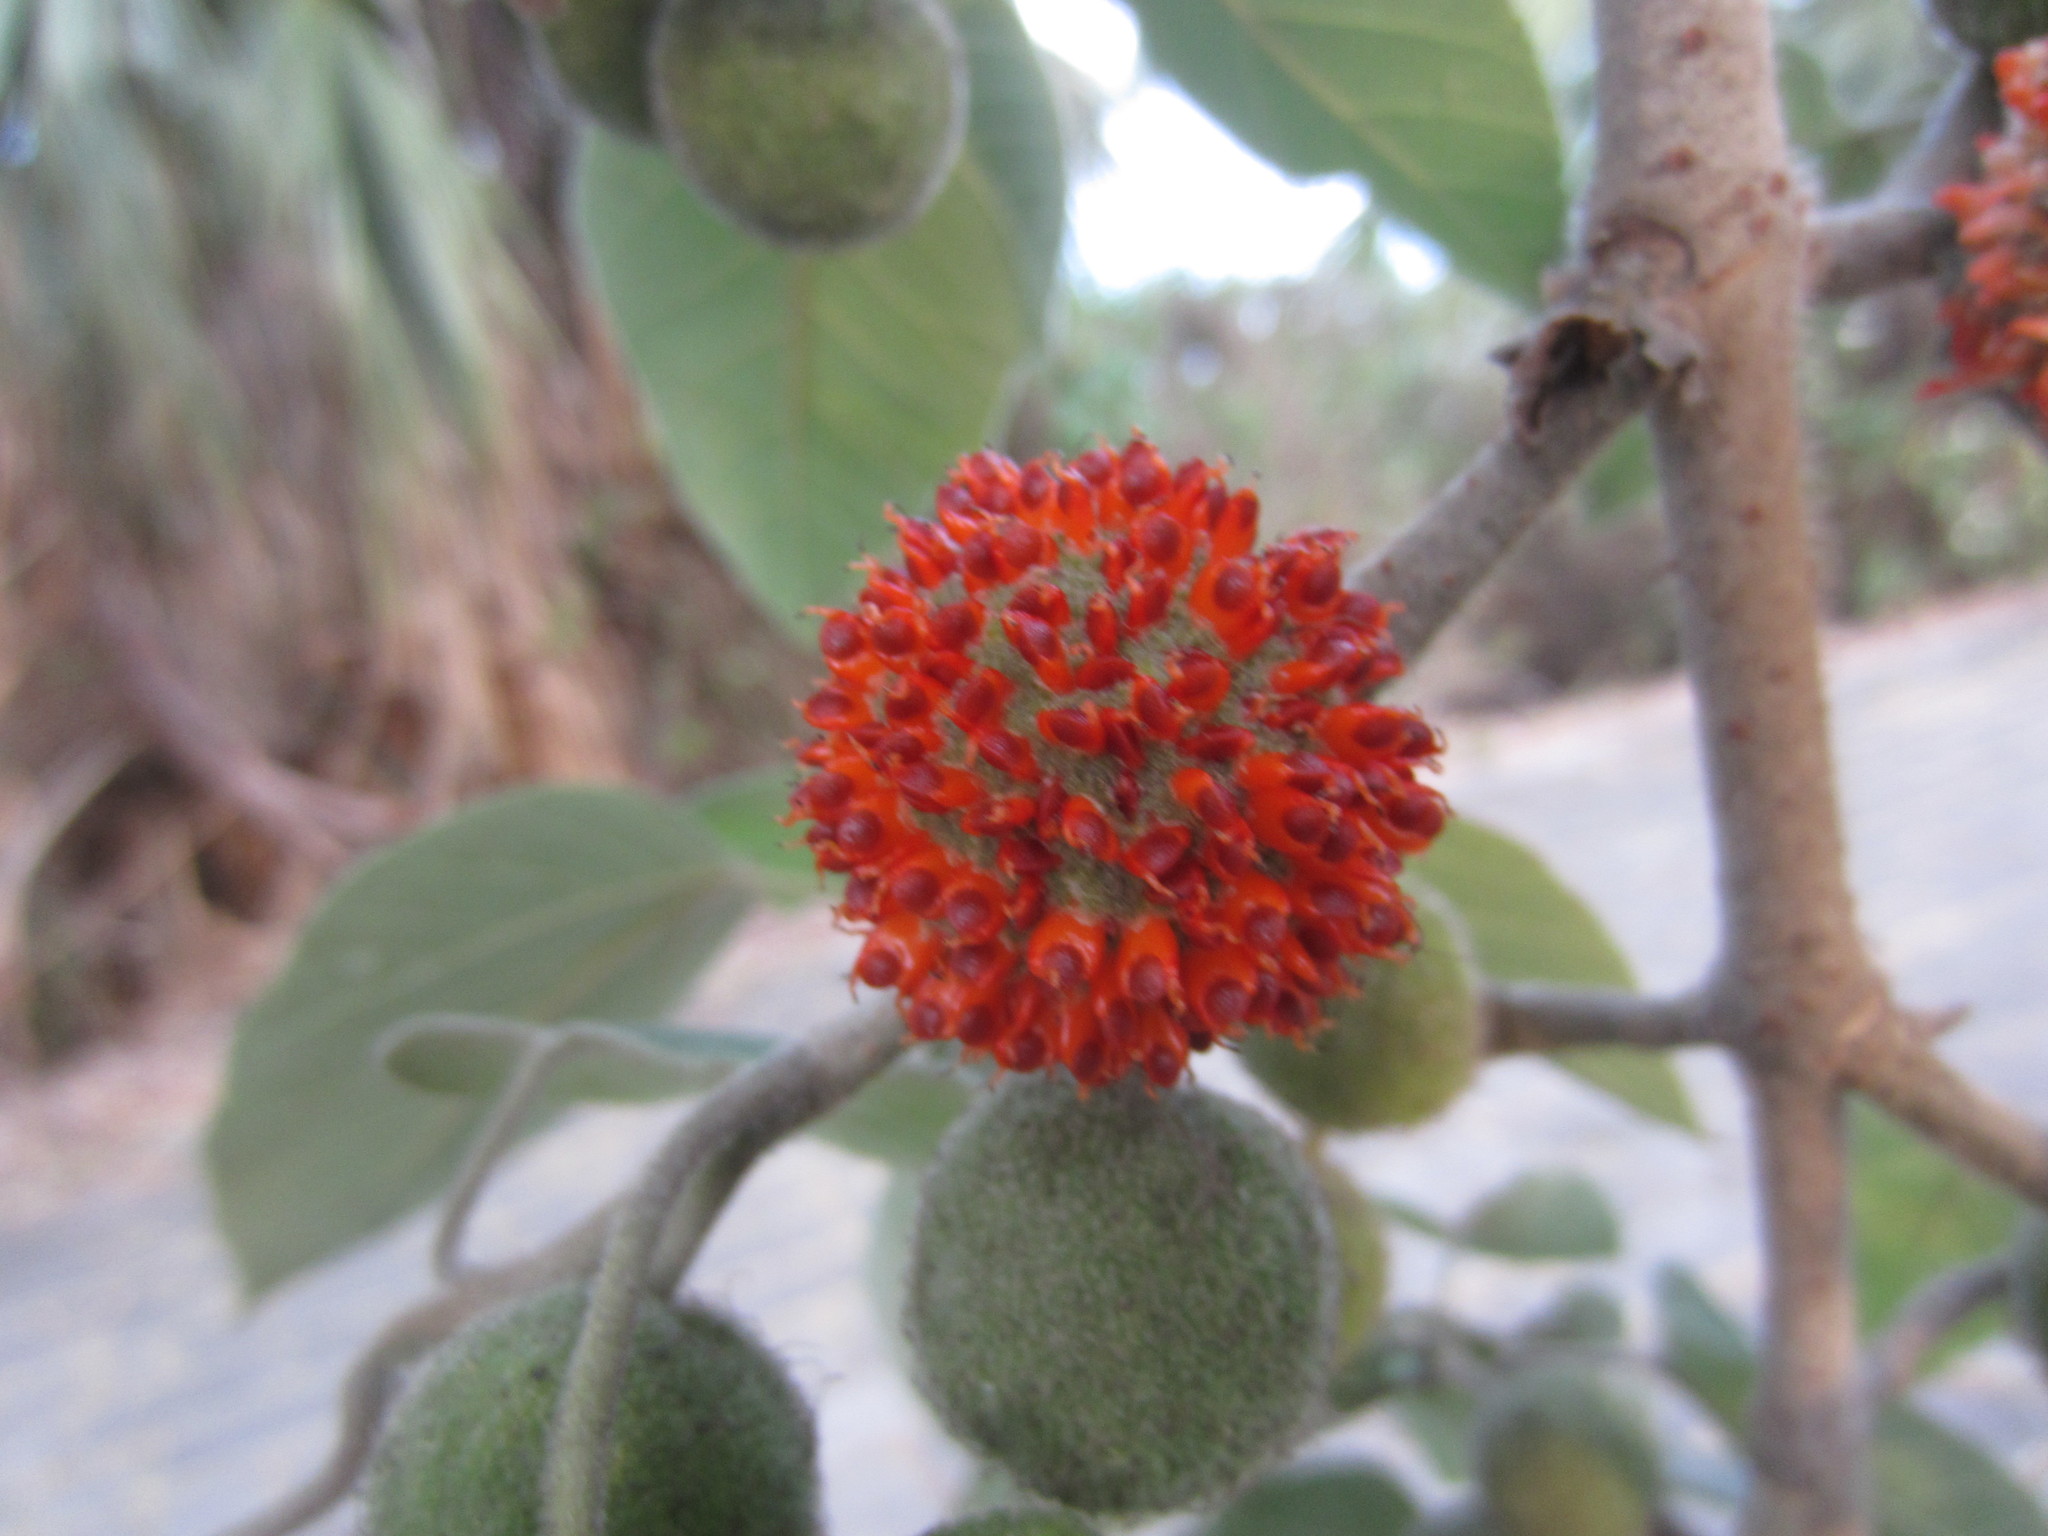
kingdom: Plantae
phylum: Tracheophyta
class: Magnoliopsida
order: Rosales
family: Moraceae
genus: Broussonetia
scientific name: Broussonetia papyrifera
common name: Paper mulberry
